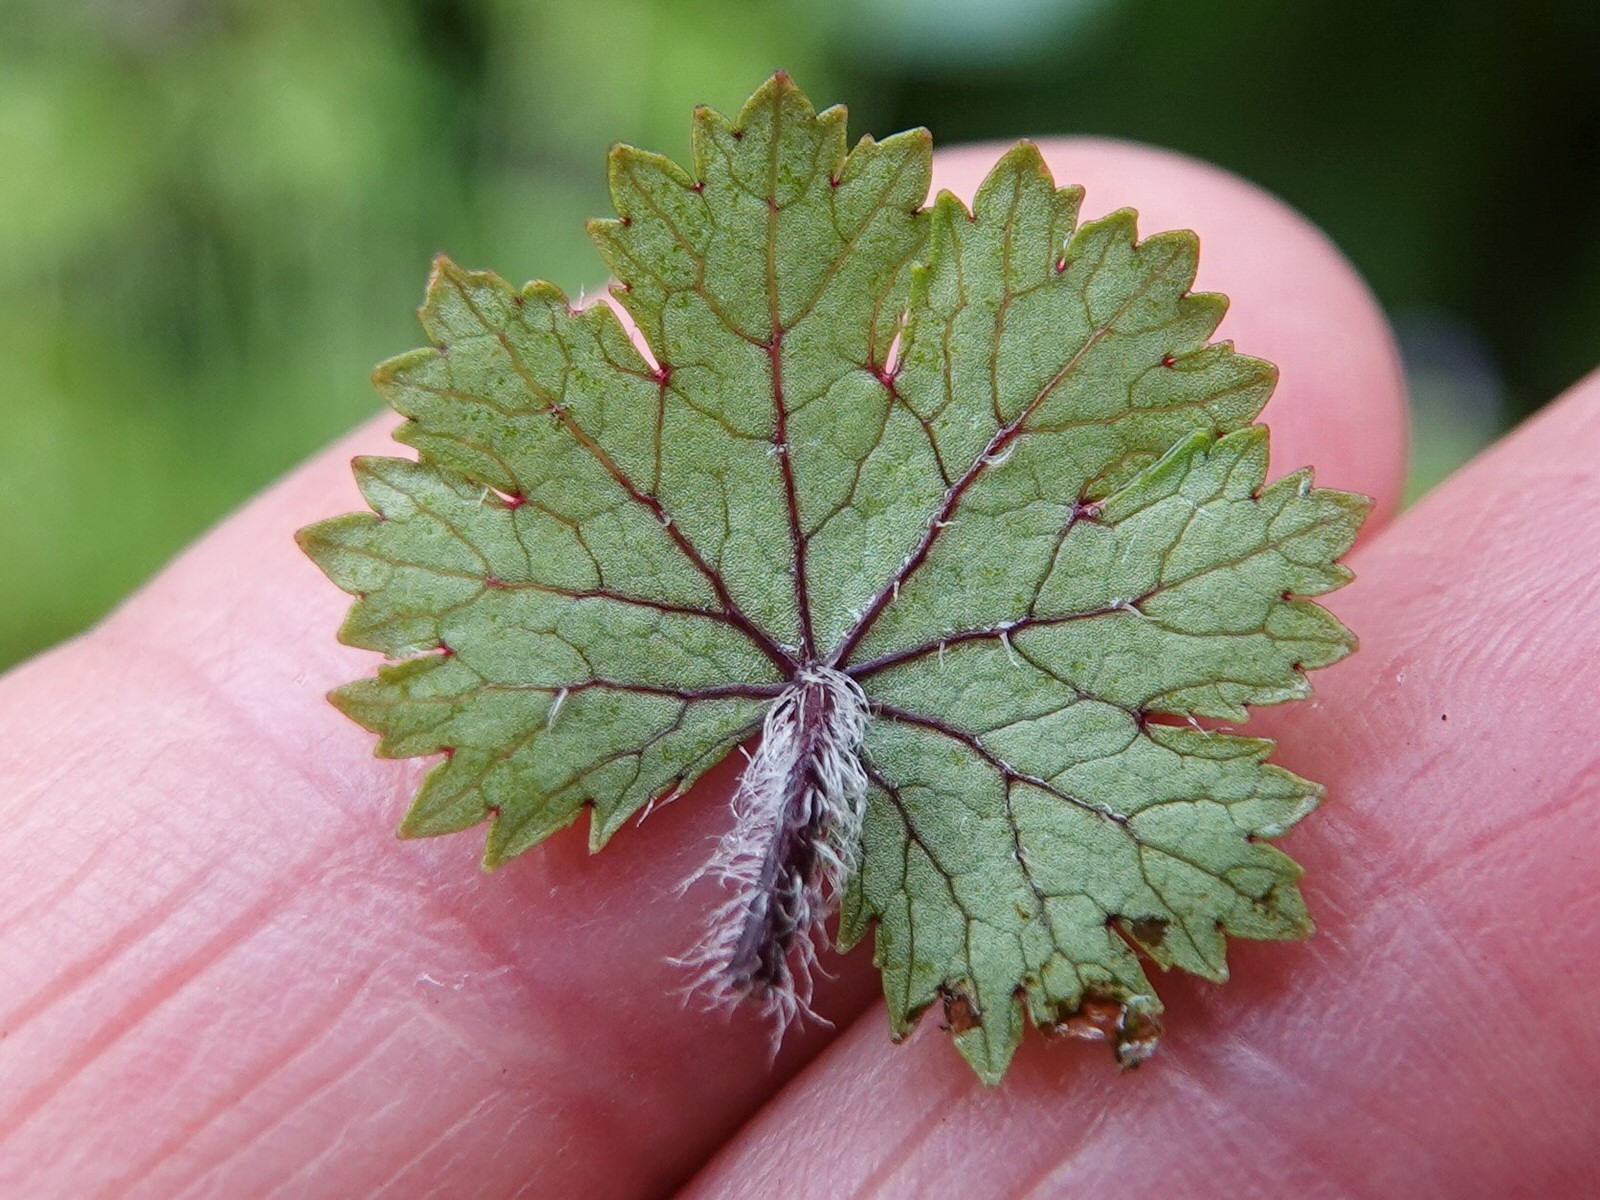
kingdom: Plantae
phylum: Tracheophyta
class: Magnoliopsida
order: Apiales
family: Araliaceae
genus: Hydrocotyle
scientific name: Hydrocotyle moschata
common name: Hairy pennywort
